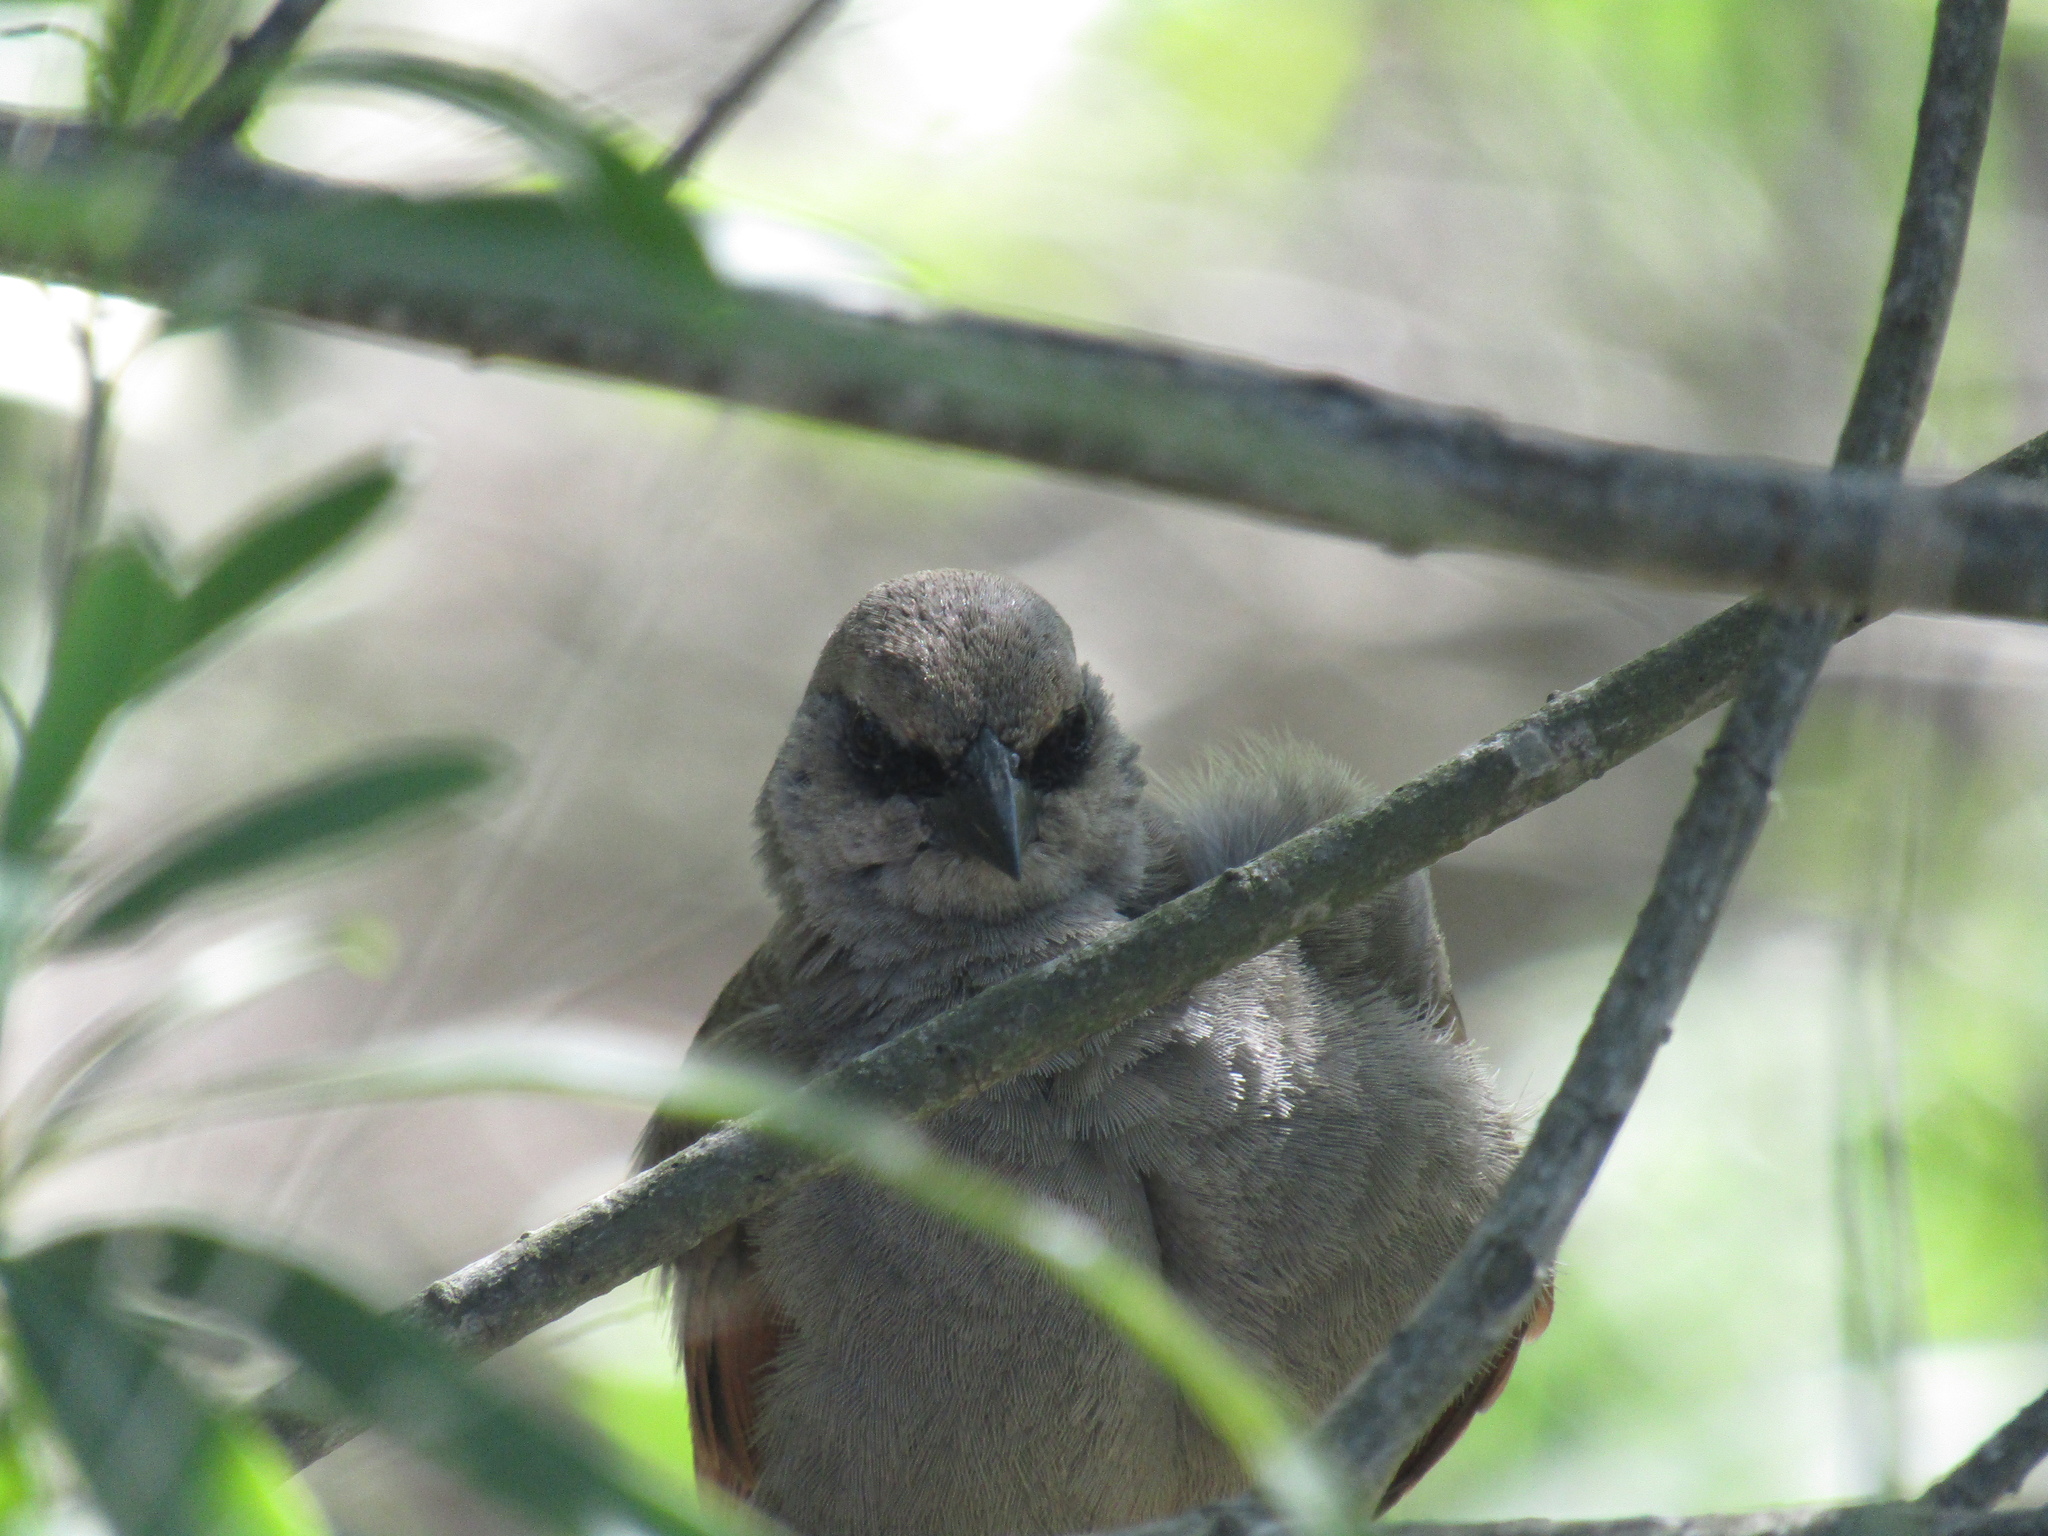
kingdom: Animalia
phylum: Chordata
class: Aves
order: Passeriformes
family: Icteridae
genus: Agelaioides
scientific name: Agelaioides badius
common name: Baywing
